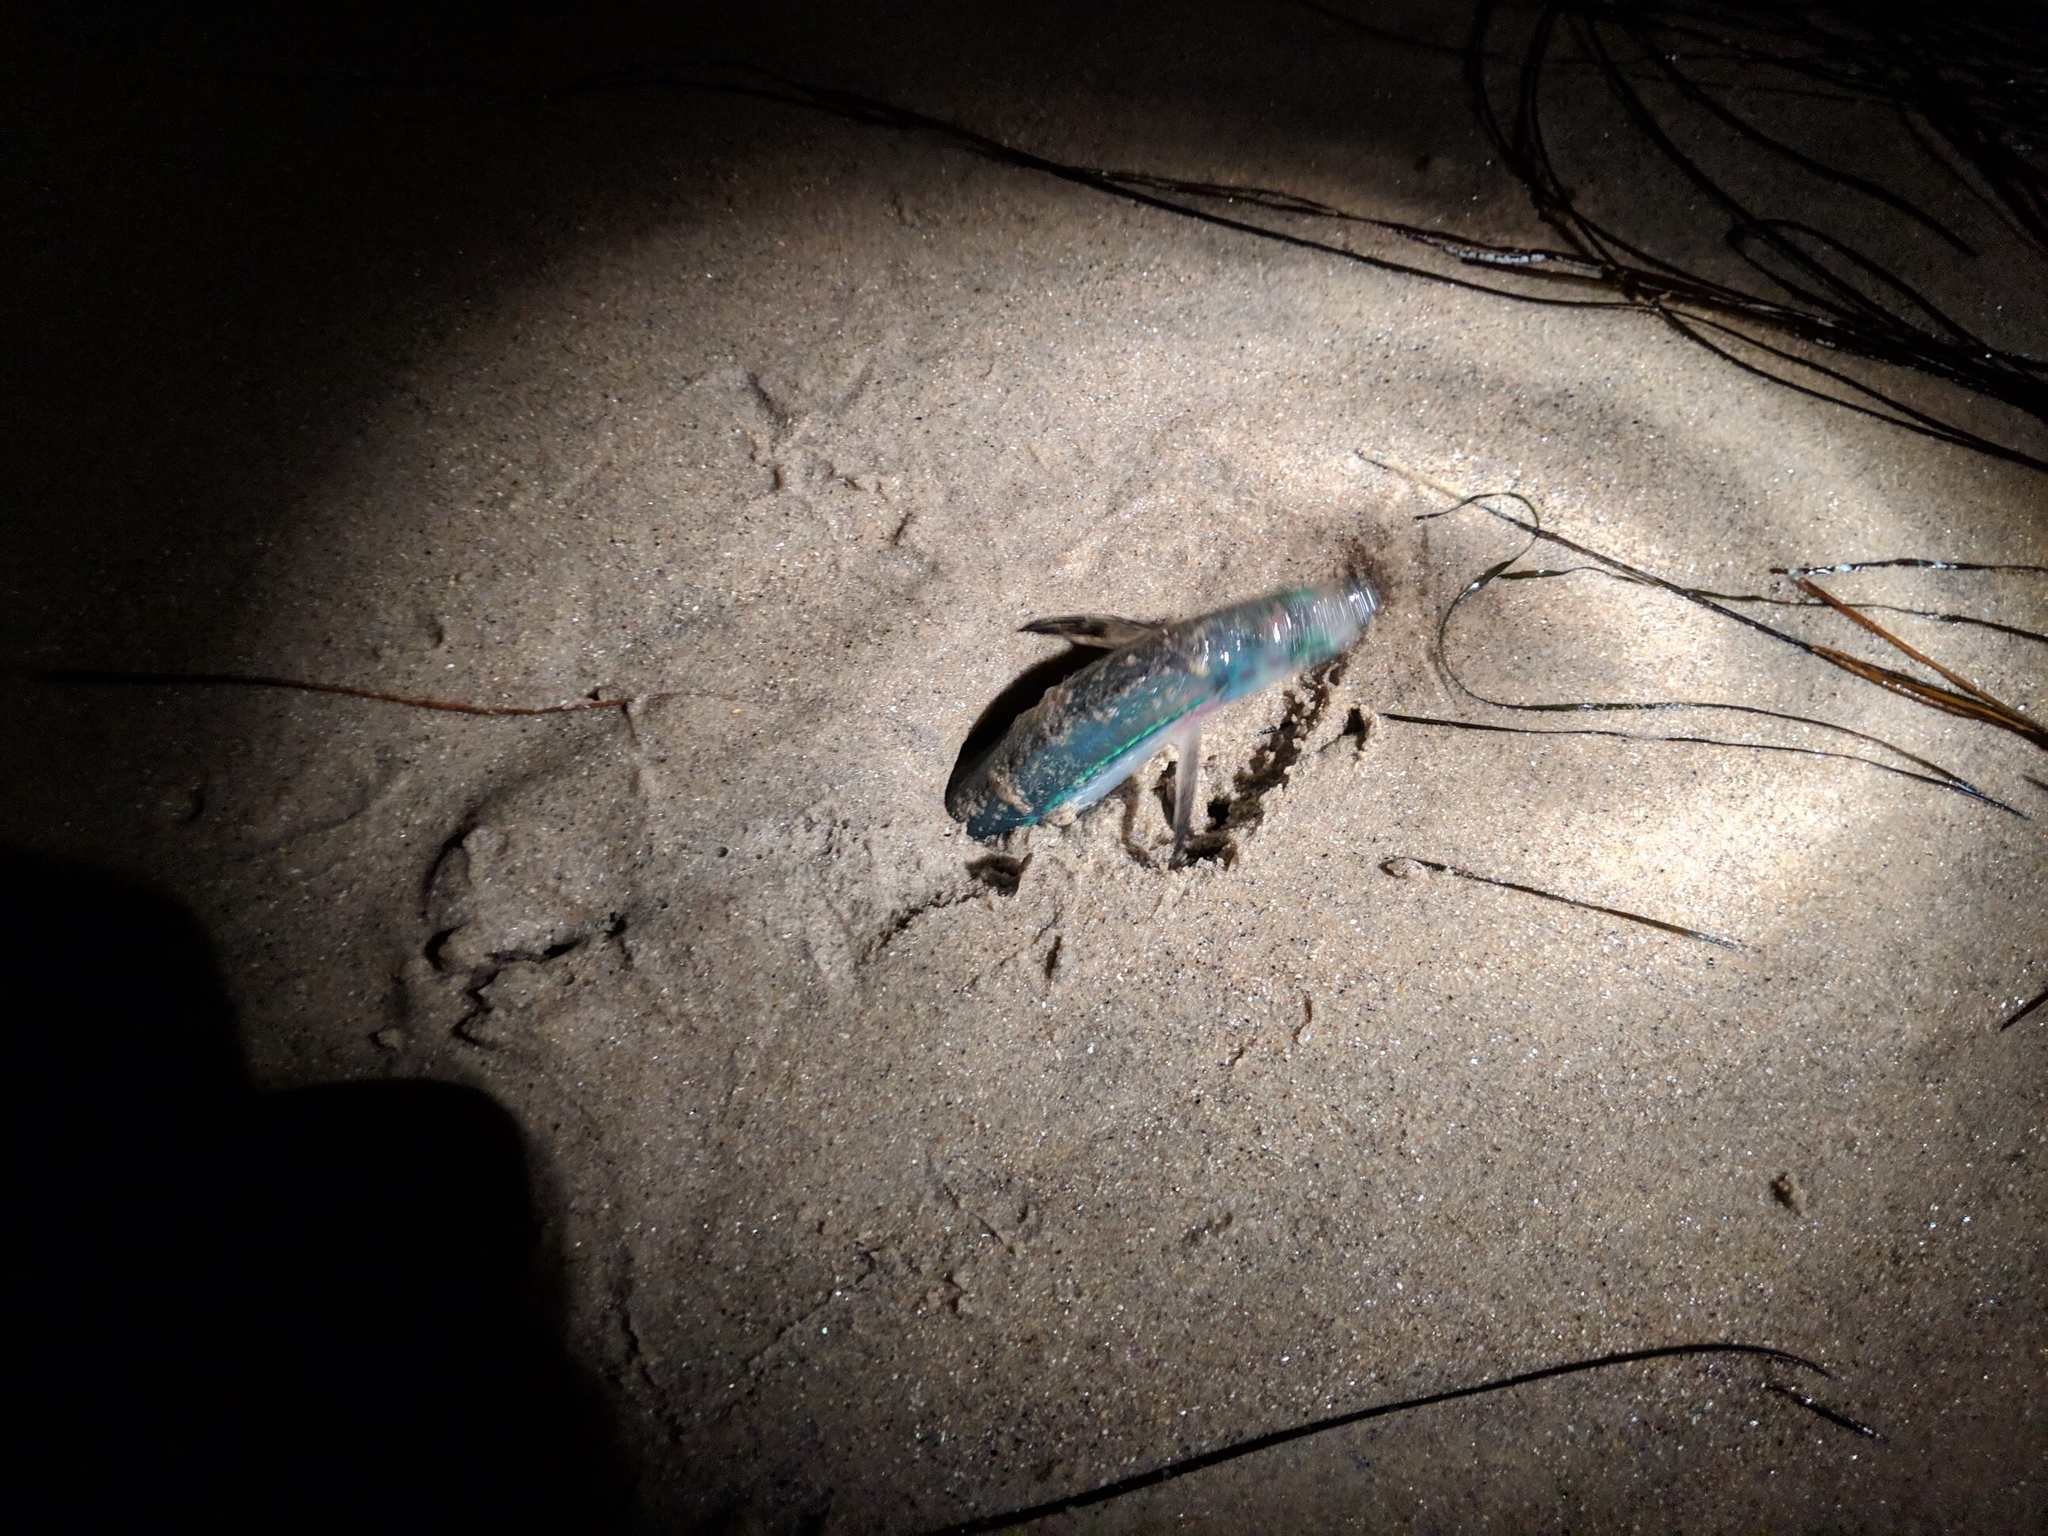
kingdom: Animalia
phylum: Chordata
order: Atheriniformes
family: Atherinopsidae
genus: Leuresthes
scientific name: Leuresthes tenuis
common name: California grunion
